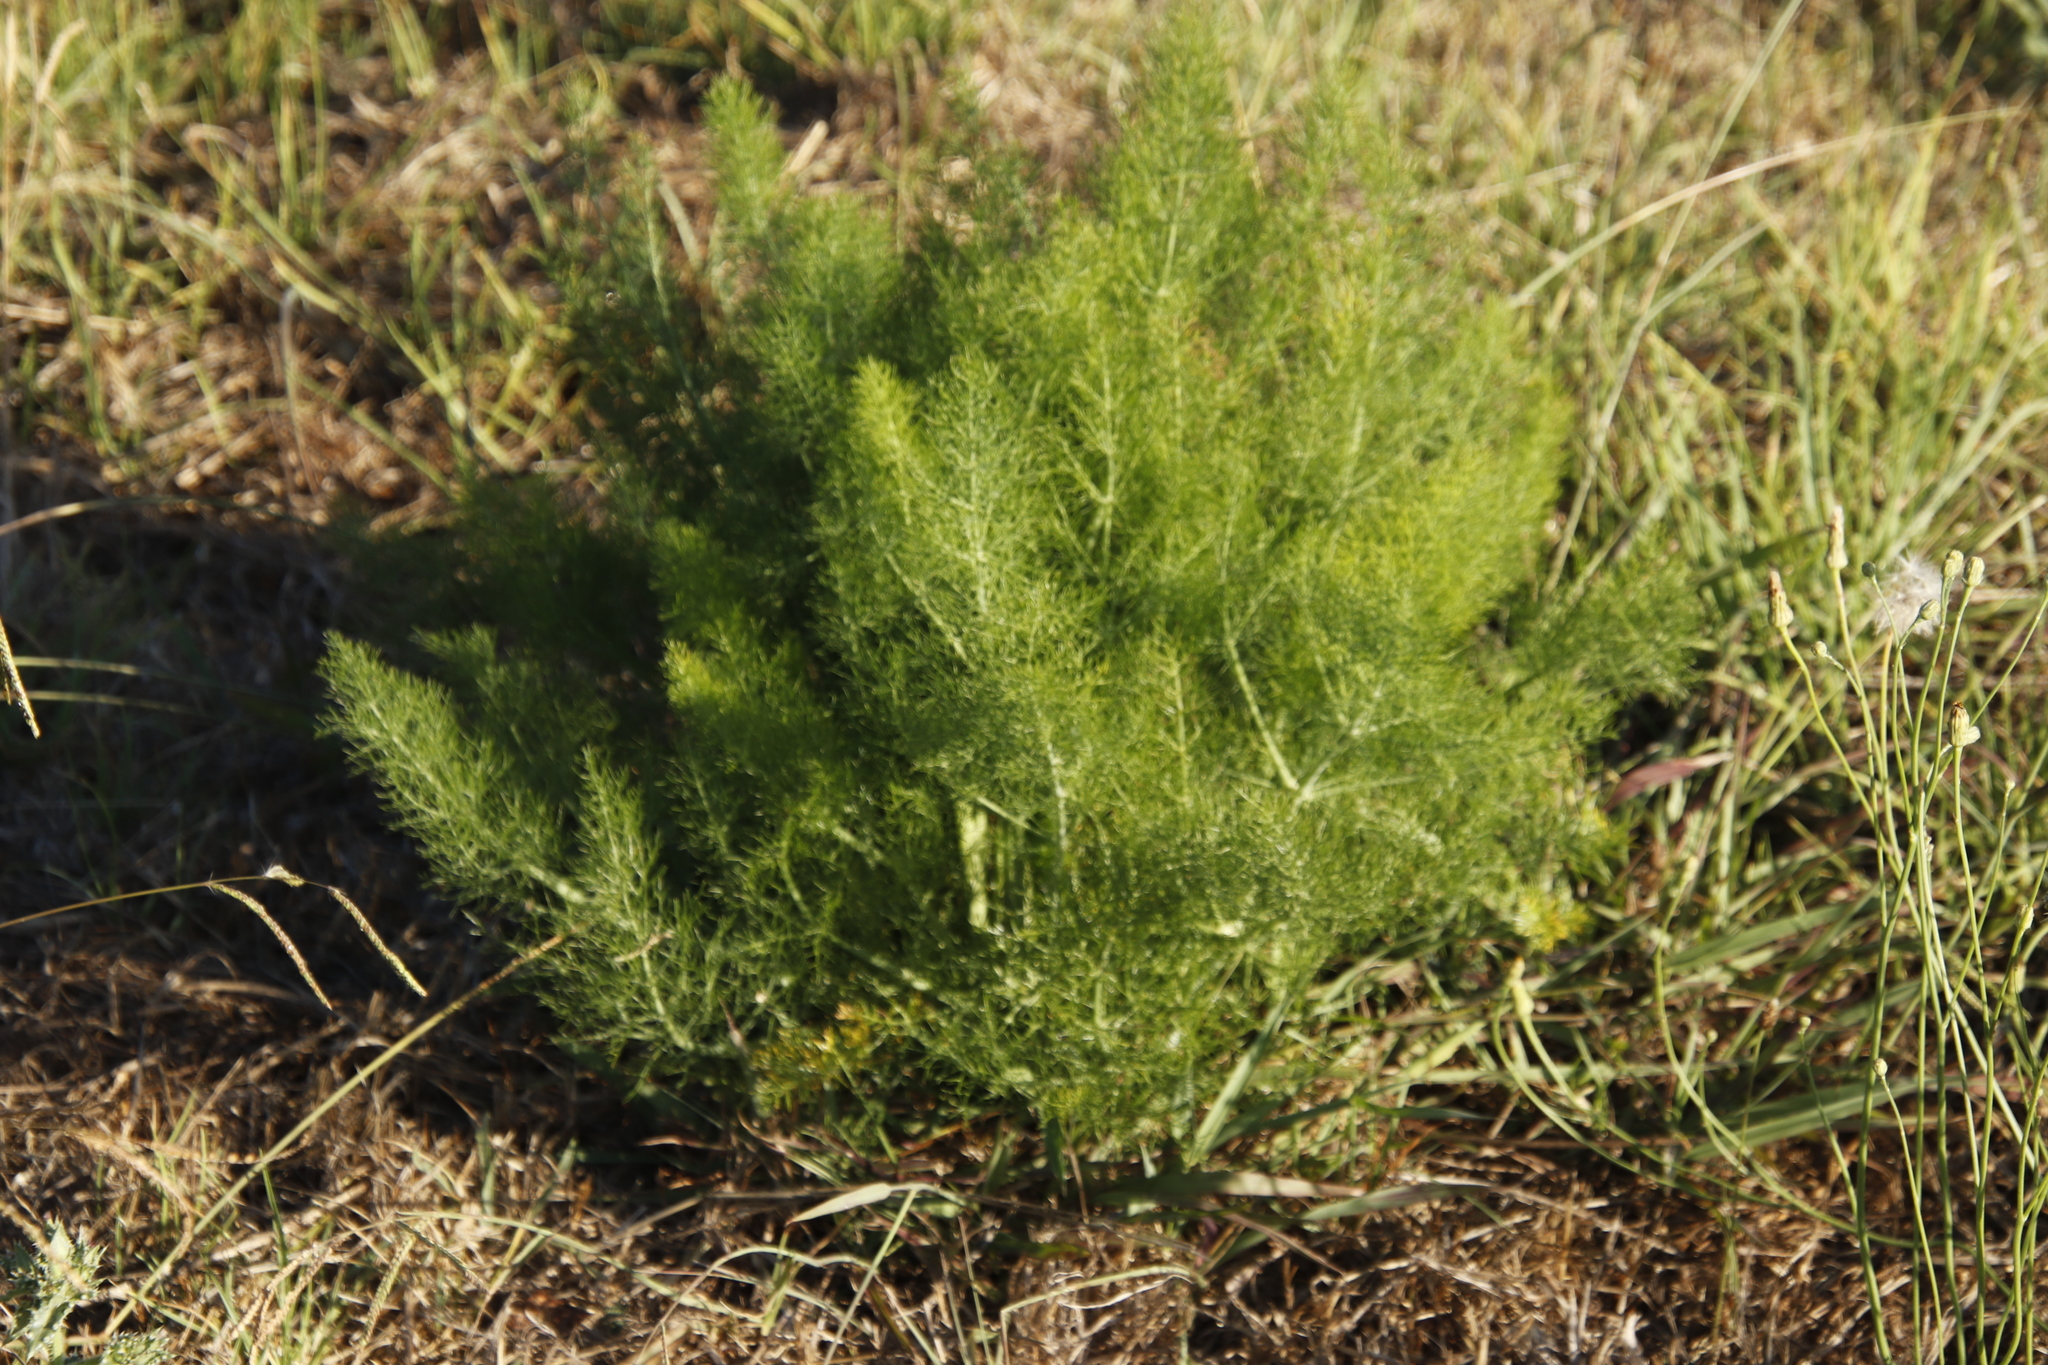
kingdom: Plantae
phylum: Tracheophyta
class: Magnoliopsida
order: Apiales
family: Apiaceae
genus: Foeniculum
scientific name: Foeniculum vulgare
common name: Fennel
